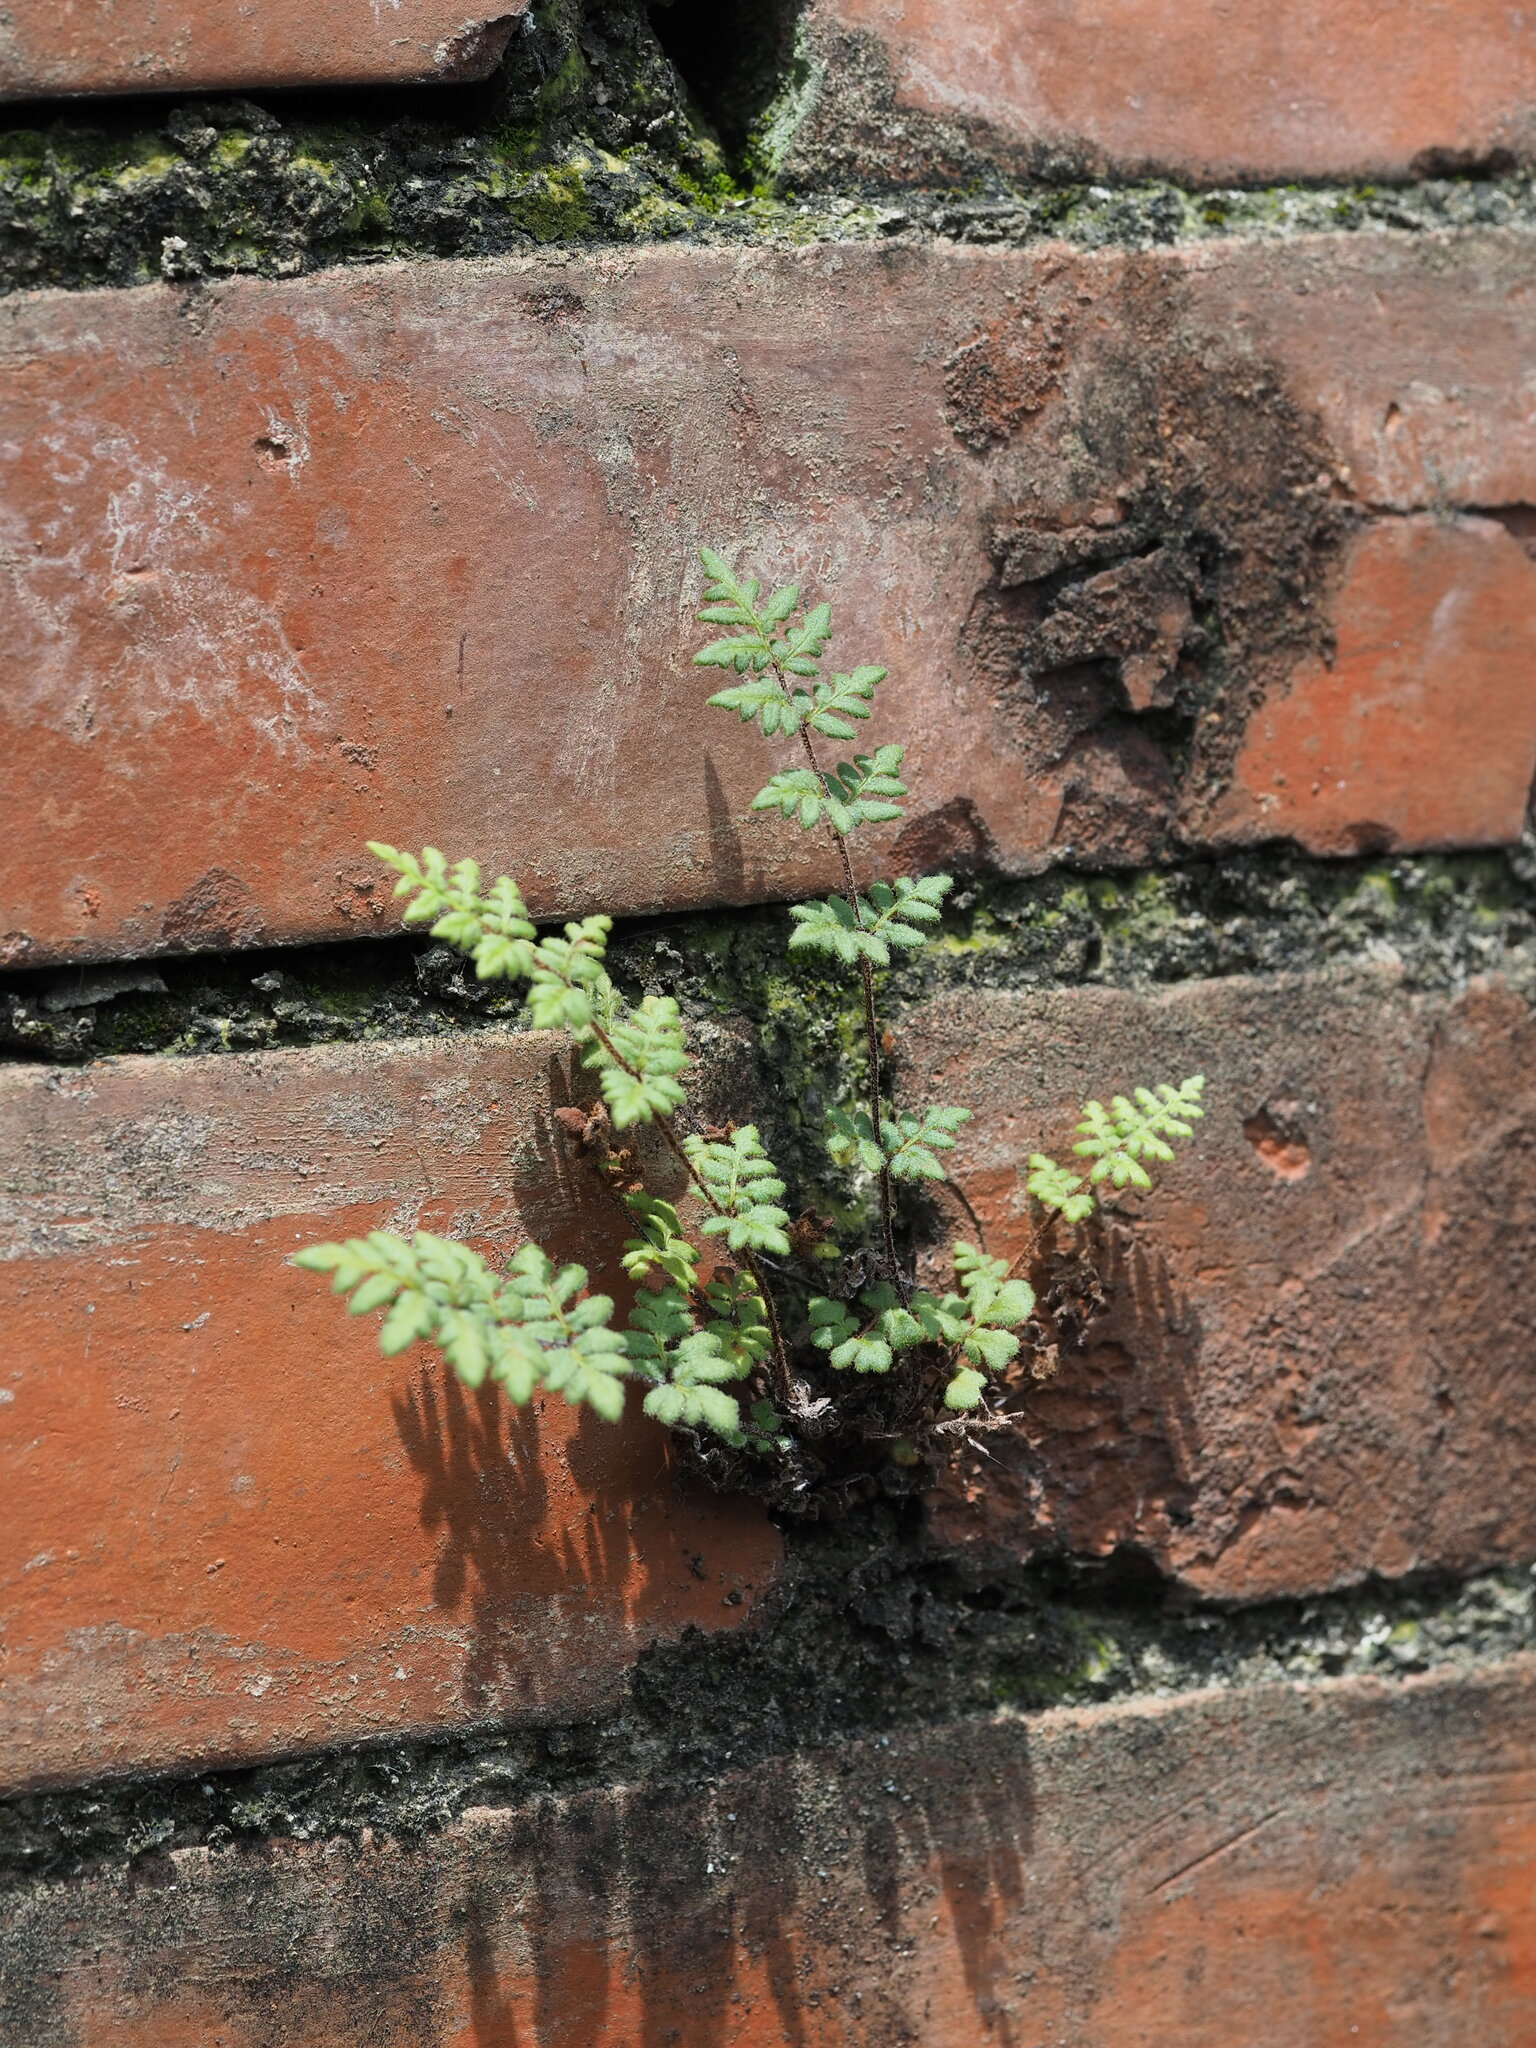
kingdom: Plantae
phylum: Tracheophyta
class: Polypodiopsida
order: Polypodiales
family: Pteridaceae
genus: Cheilanthes
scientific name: Cheilanthes nudiuscula
